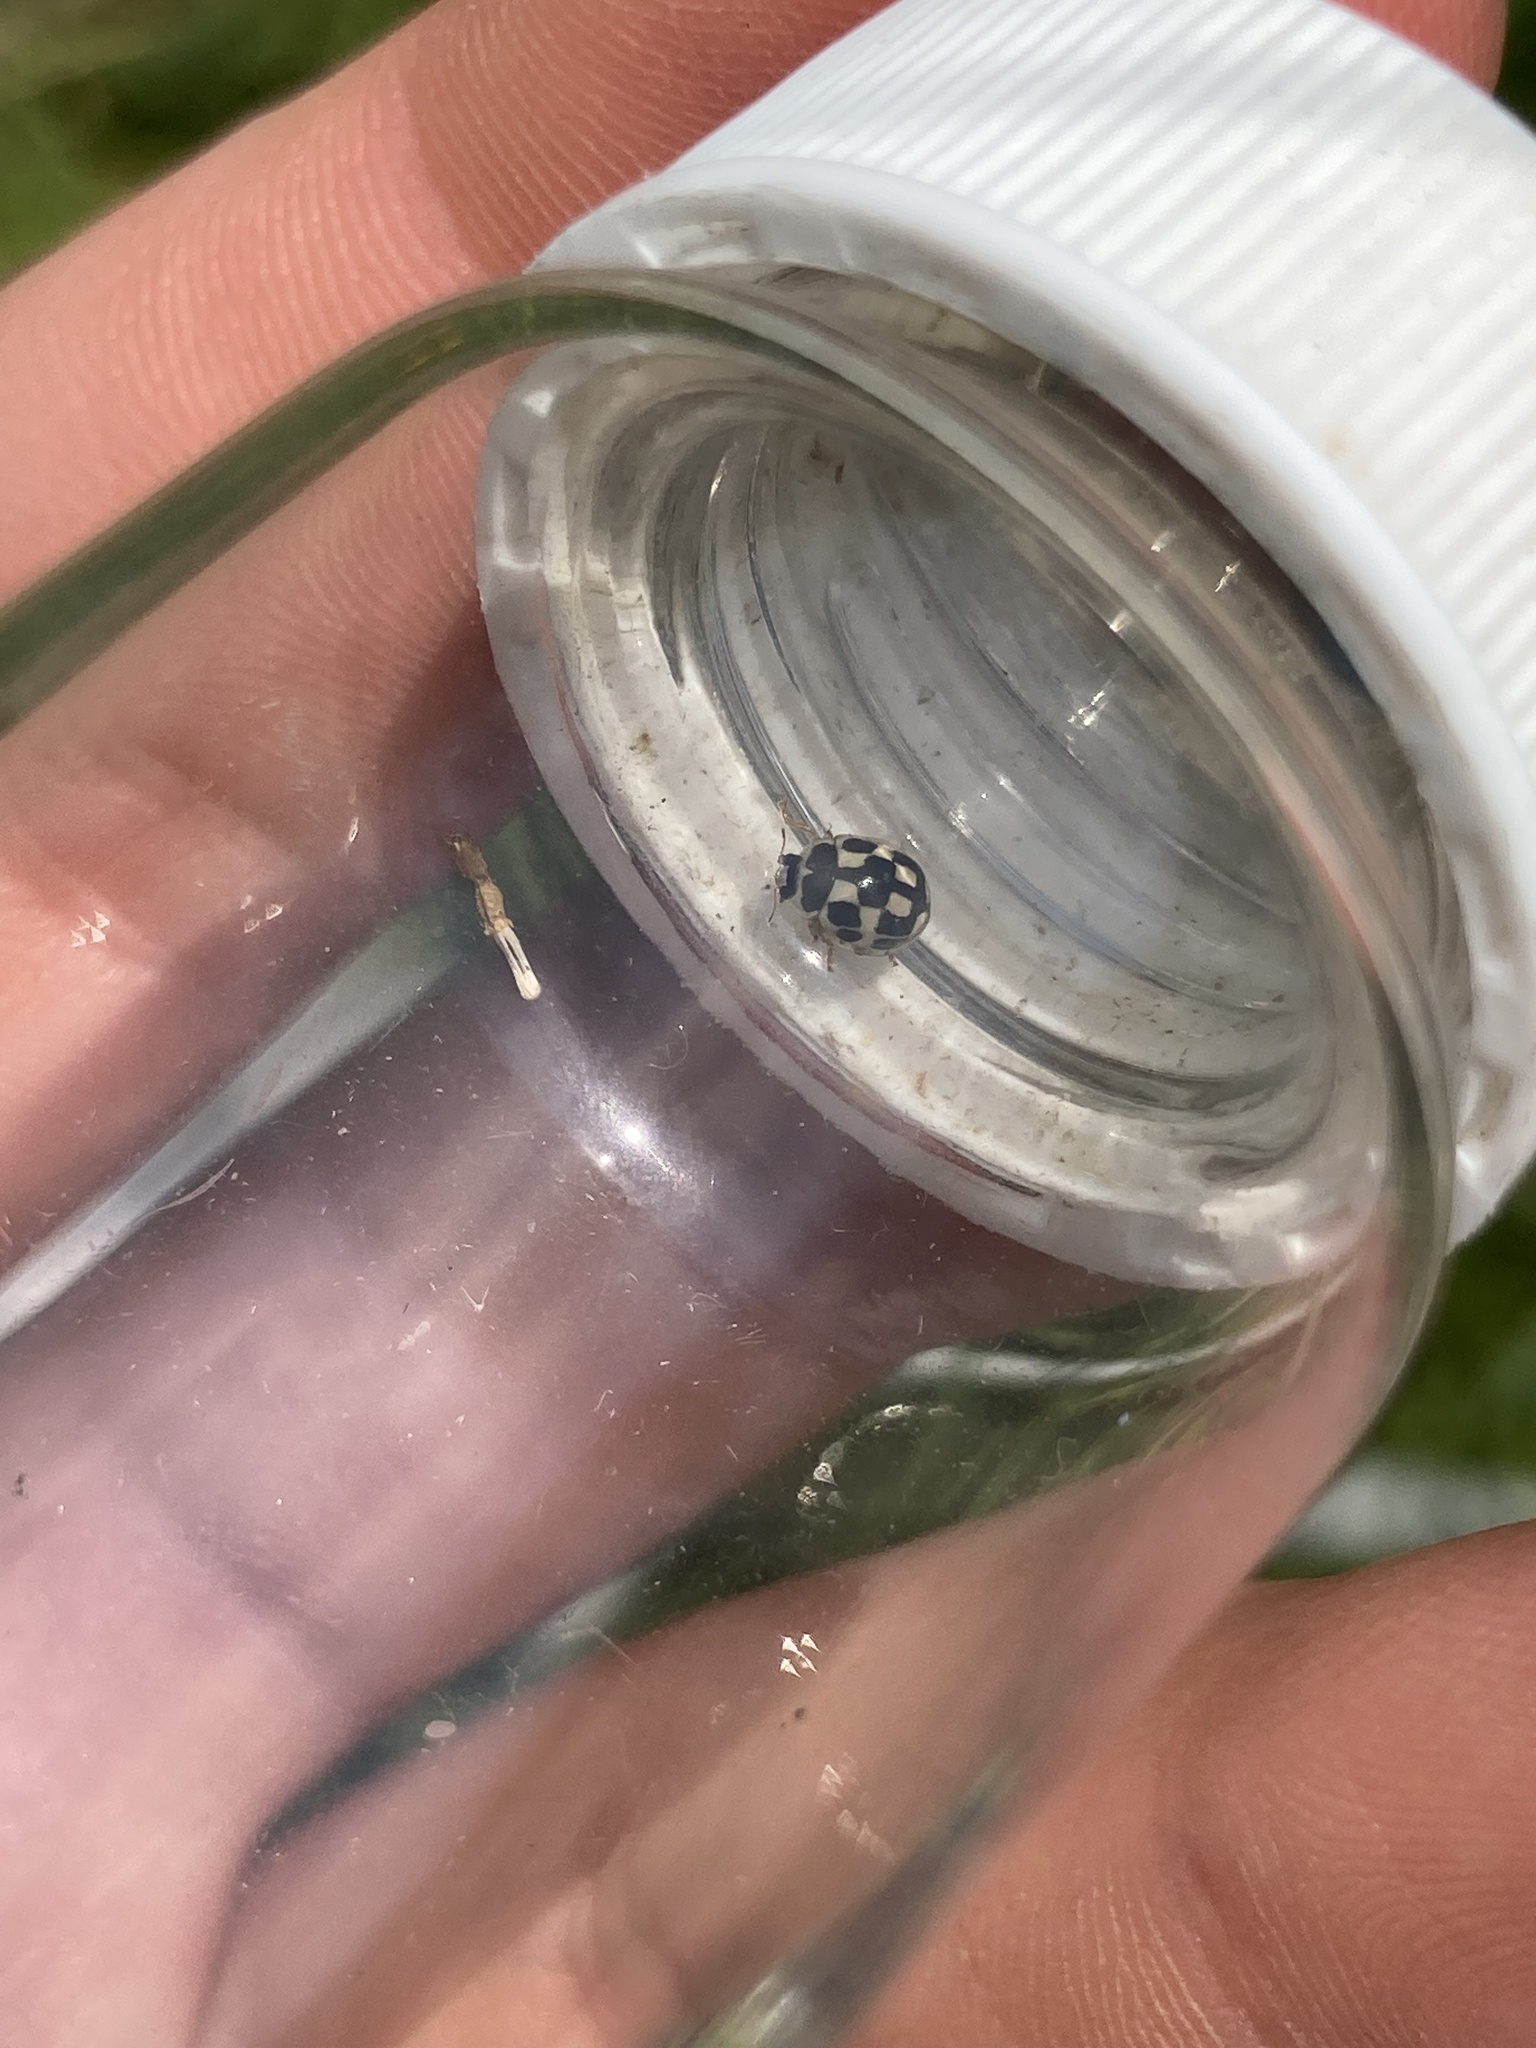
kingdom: Animalia
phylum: Arthropoda
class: Insecta
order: Coleoptera
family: Coccinellidae
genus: Propylaea
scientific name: Propylaea quatuordecimpunctata
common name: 14-spotted ladybird beetle
